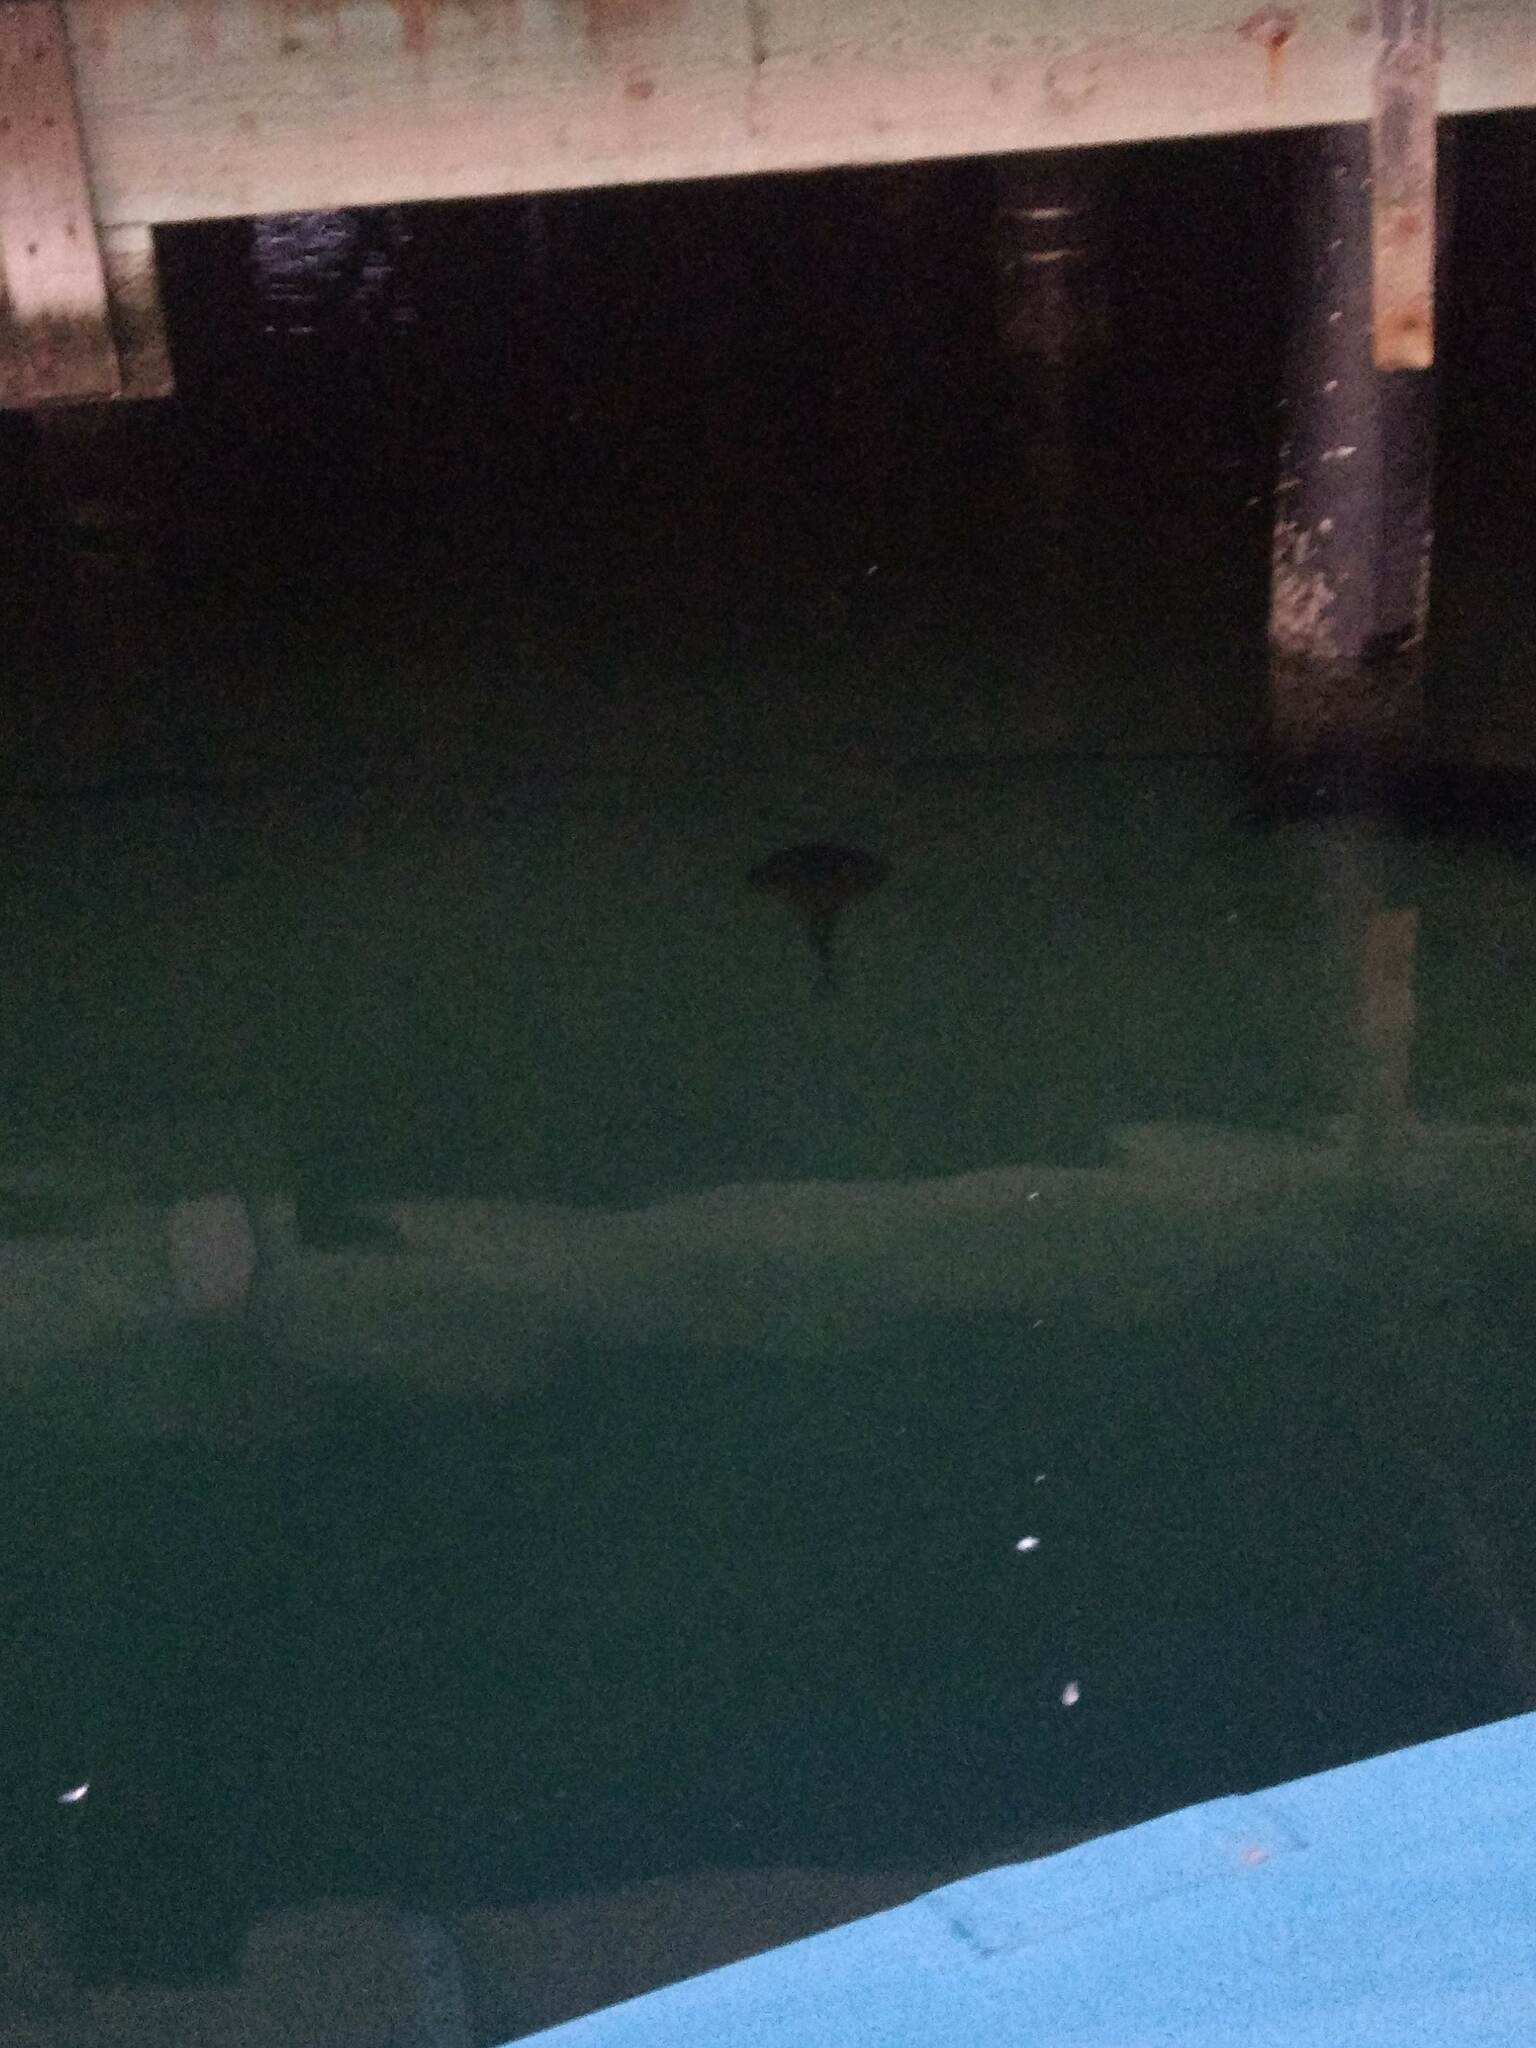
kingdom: Animalia
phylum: Chordata
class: Elasmobranchii
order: Rhinopristiformes
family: Rhinobatidae
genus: Platyrhinoidis
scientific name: Platyrhinoidis triseriata
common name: Thornback
